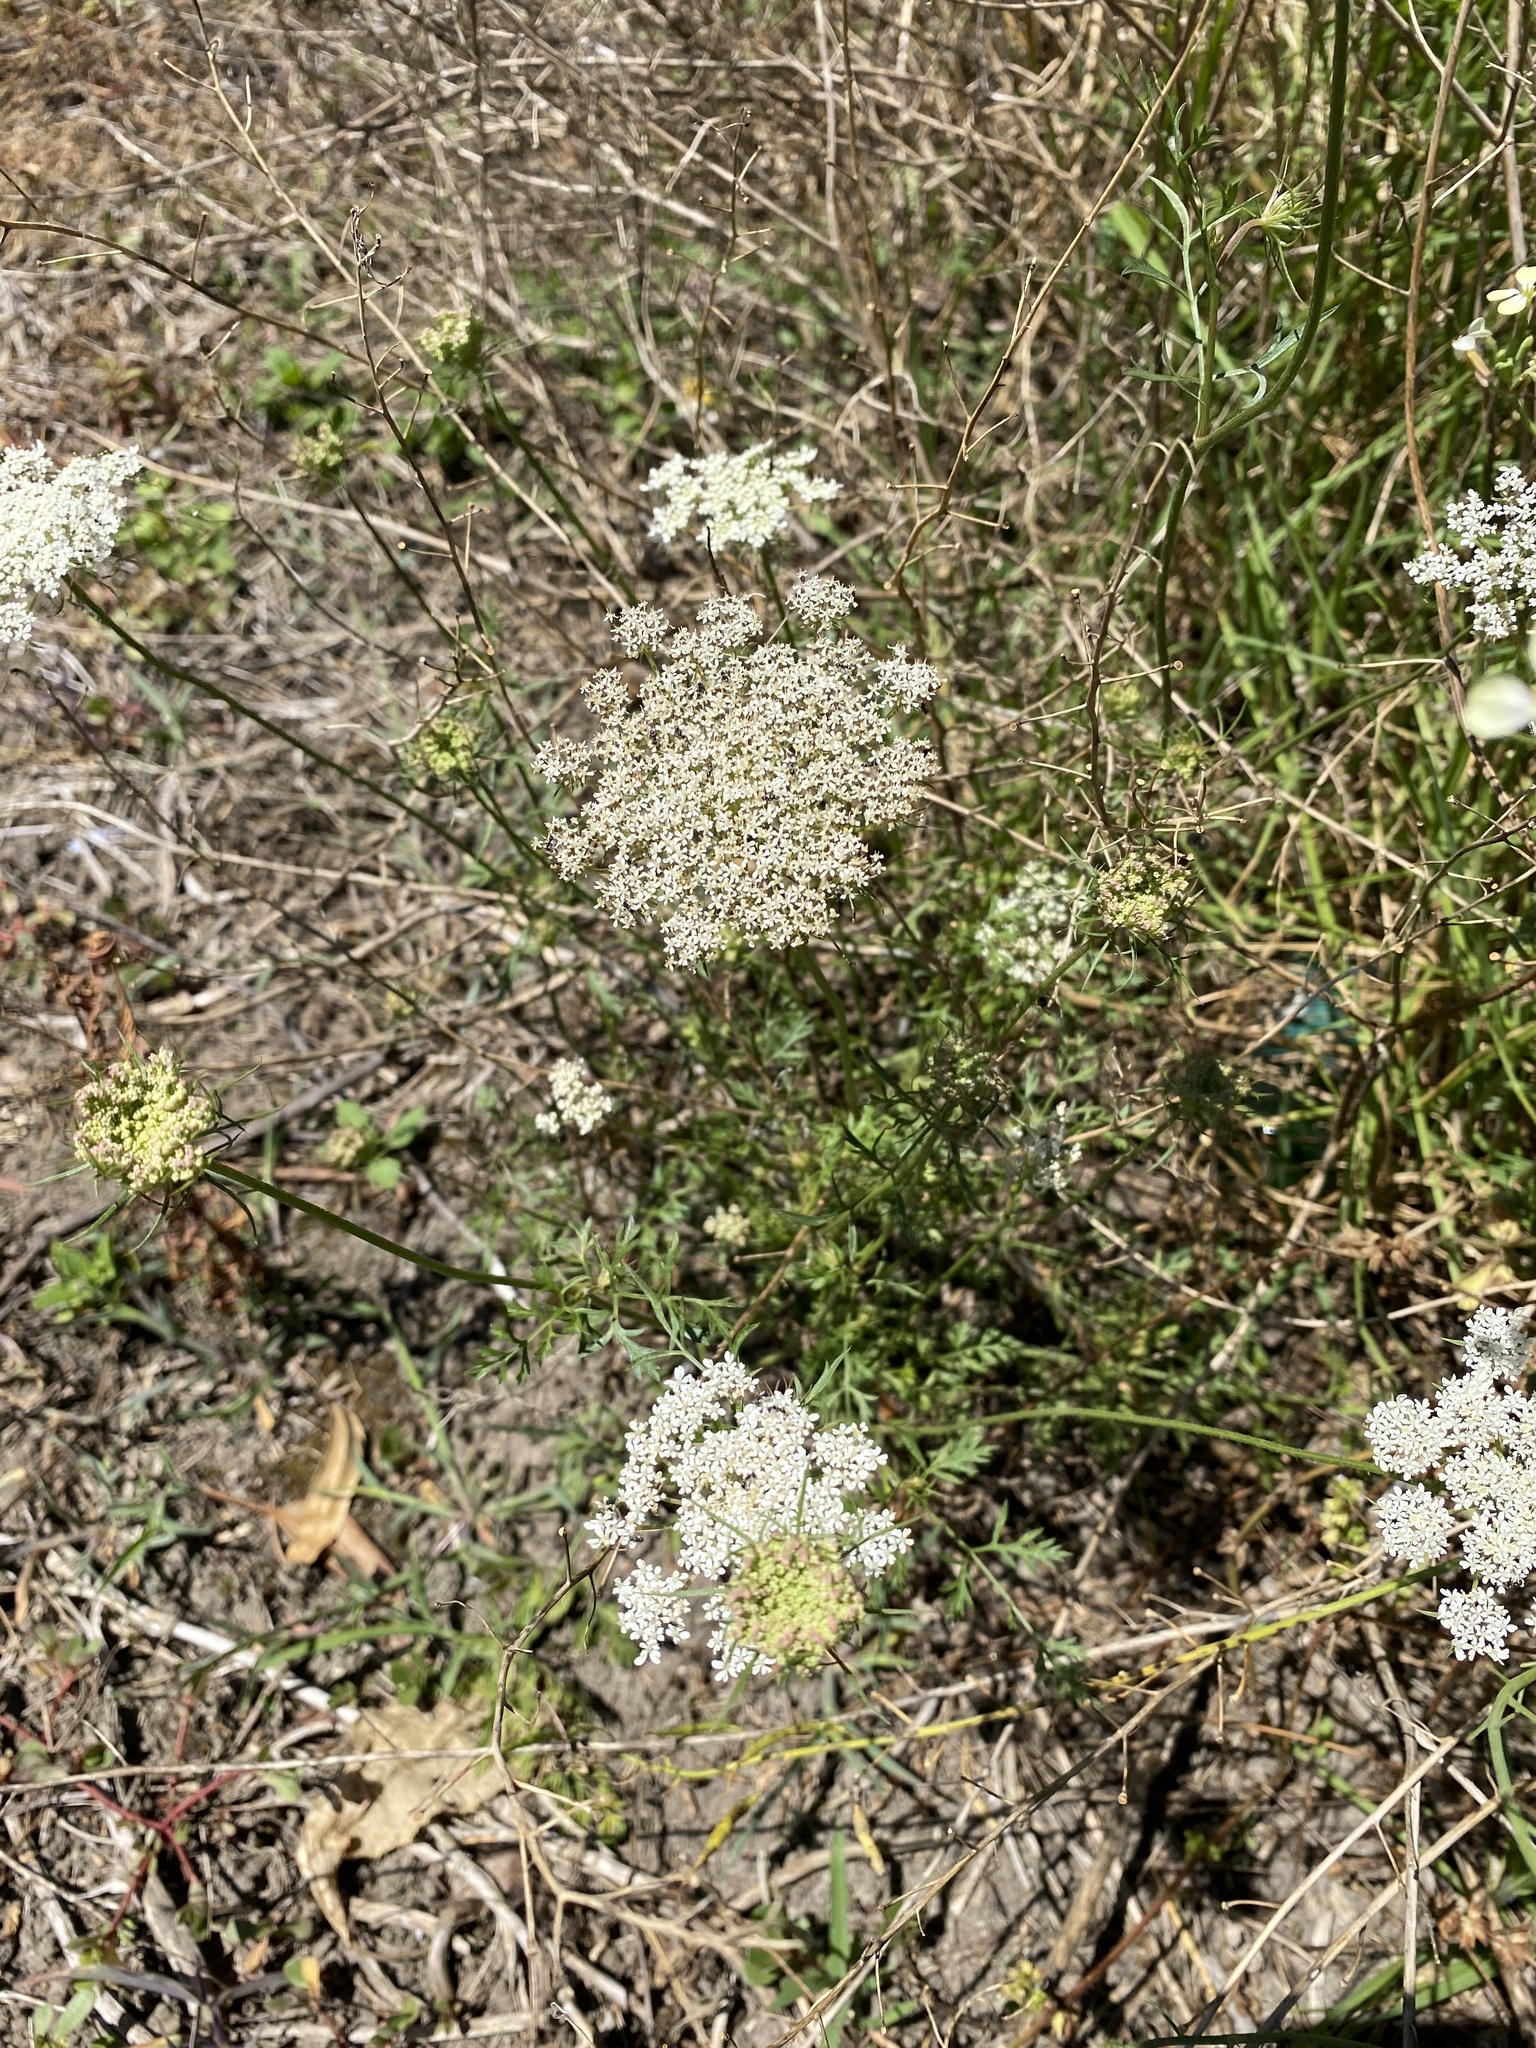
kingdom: Plantae
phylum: Tracheophyta
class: Magnoliopsida
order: Apiales
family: Apiaceae
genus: Daucus
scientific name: Daucus carota
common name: Wild carrot
